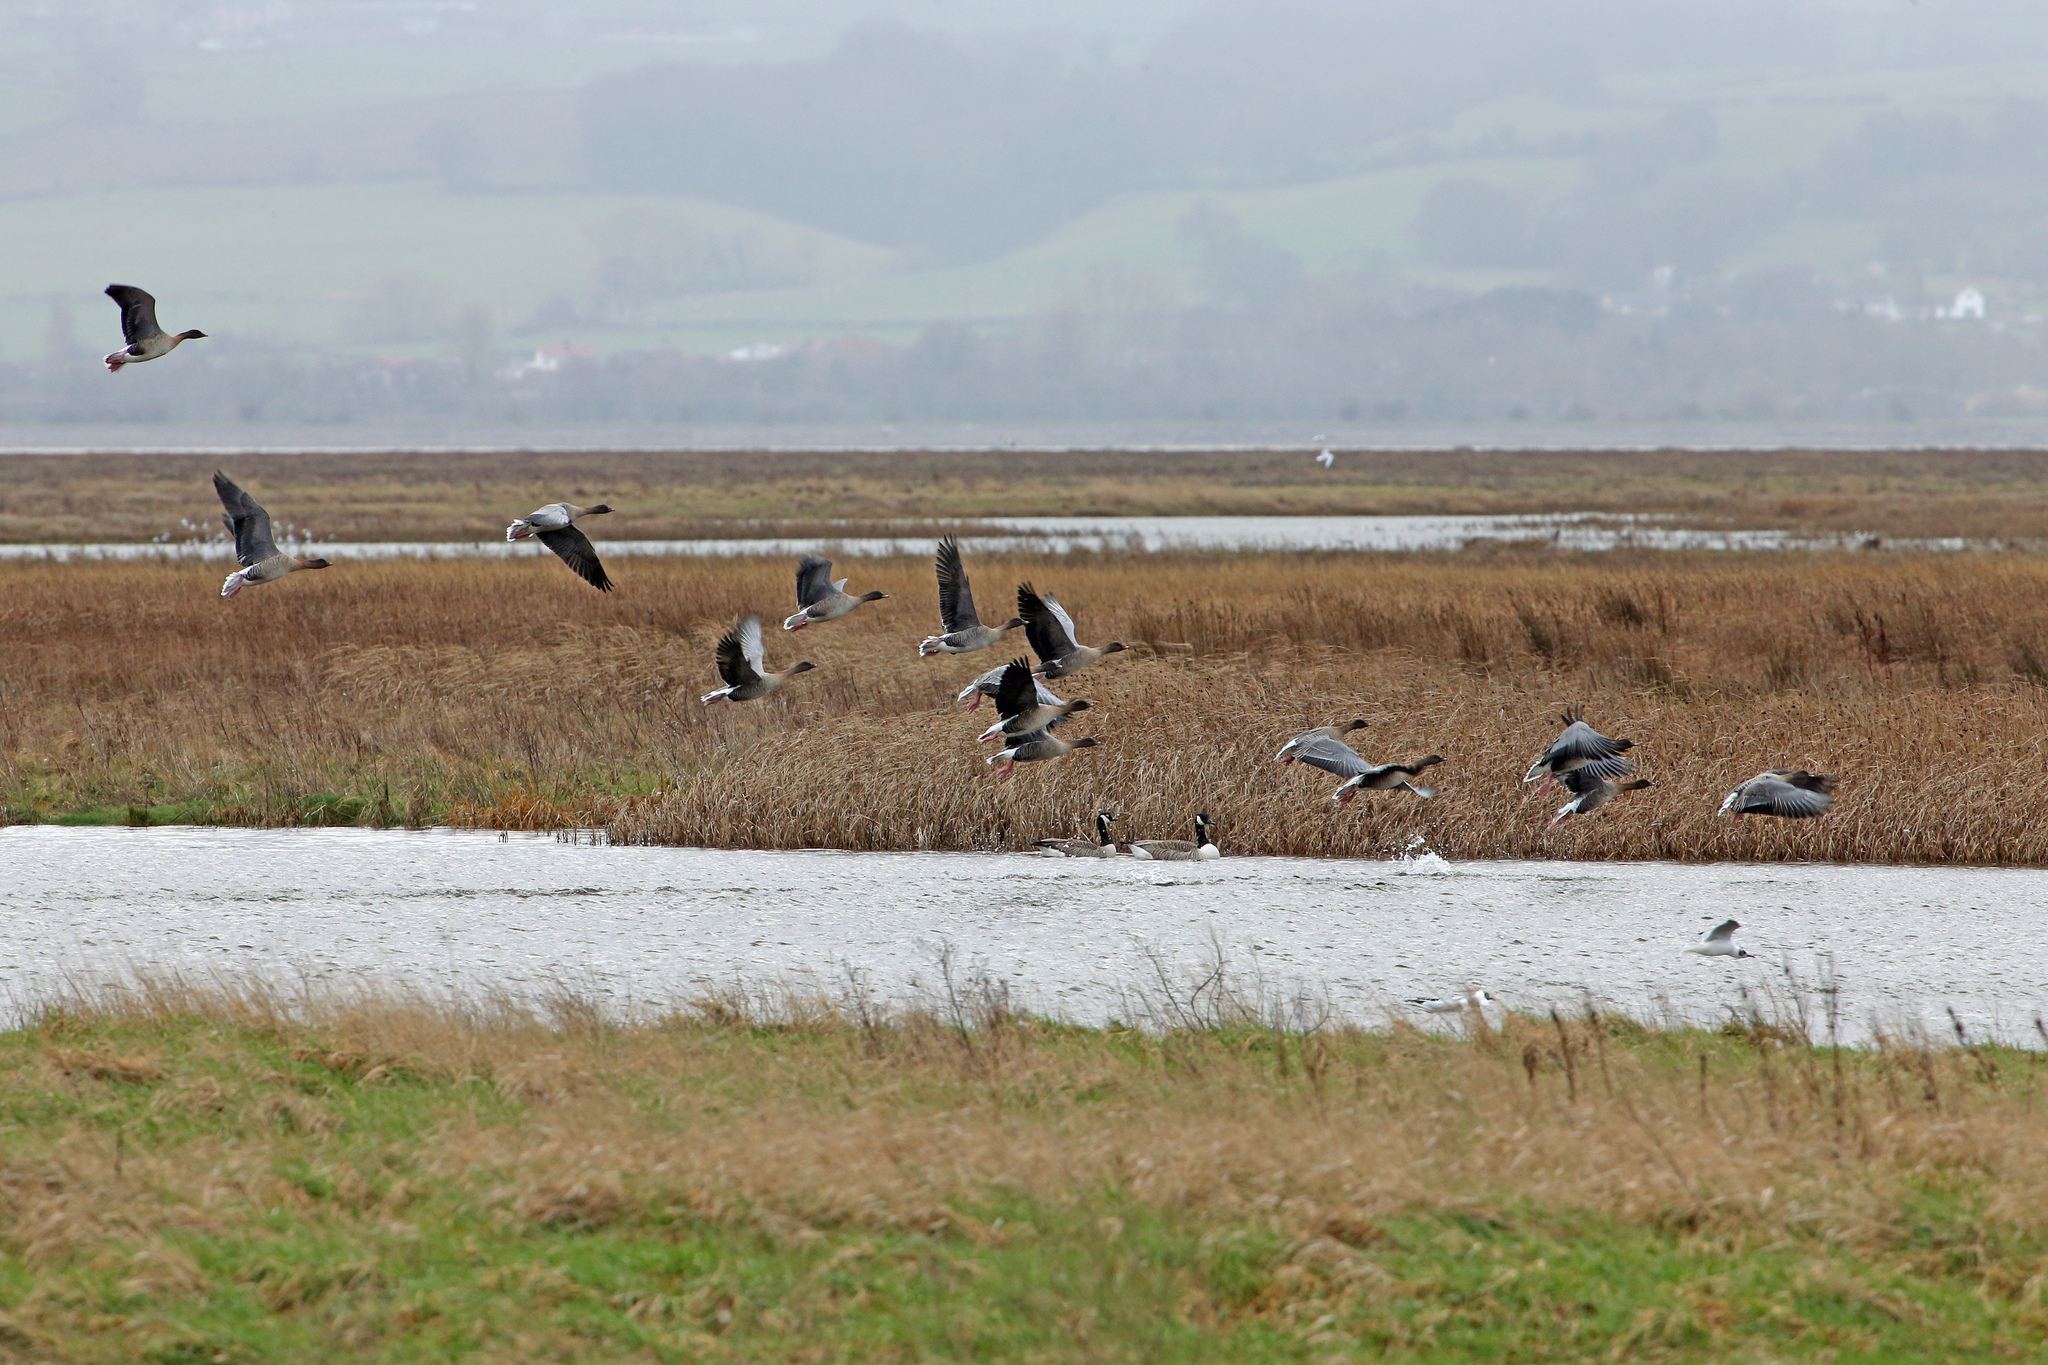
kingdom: Animalia
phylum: Chordata
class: Aves
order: Anseriformes
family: Anatidae
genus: Anser
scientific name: Anser brachyrhynchus
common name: Pink-footed goose
